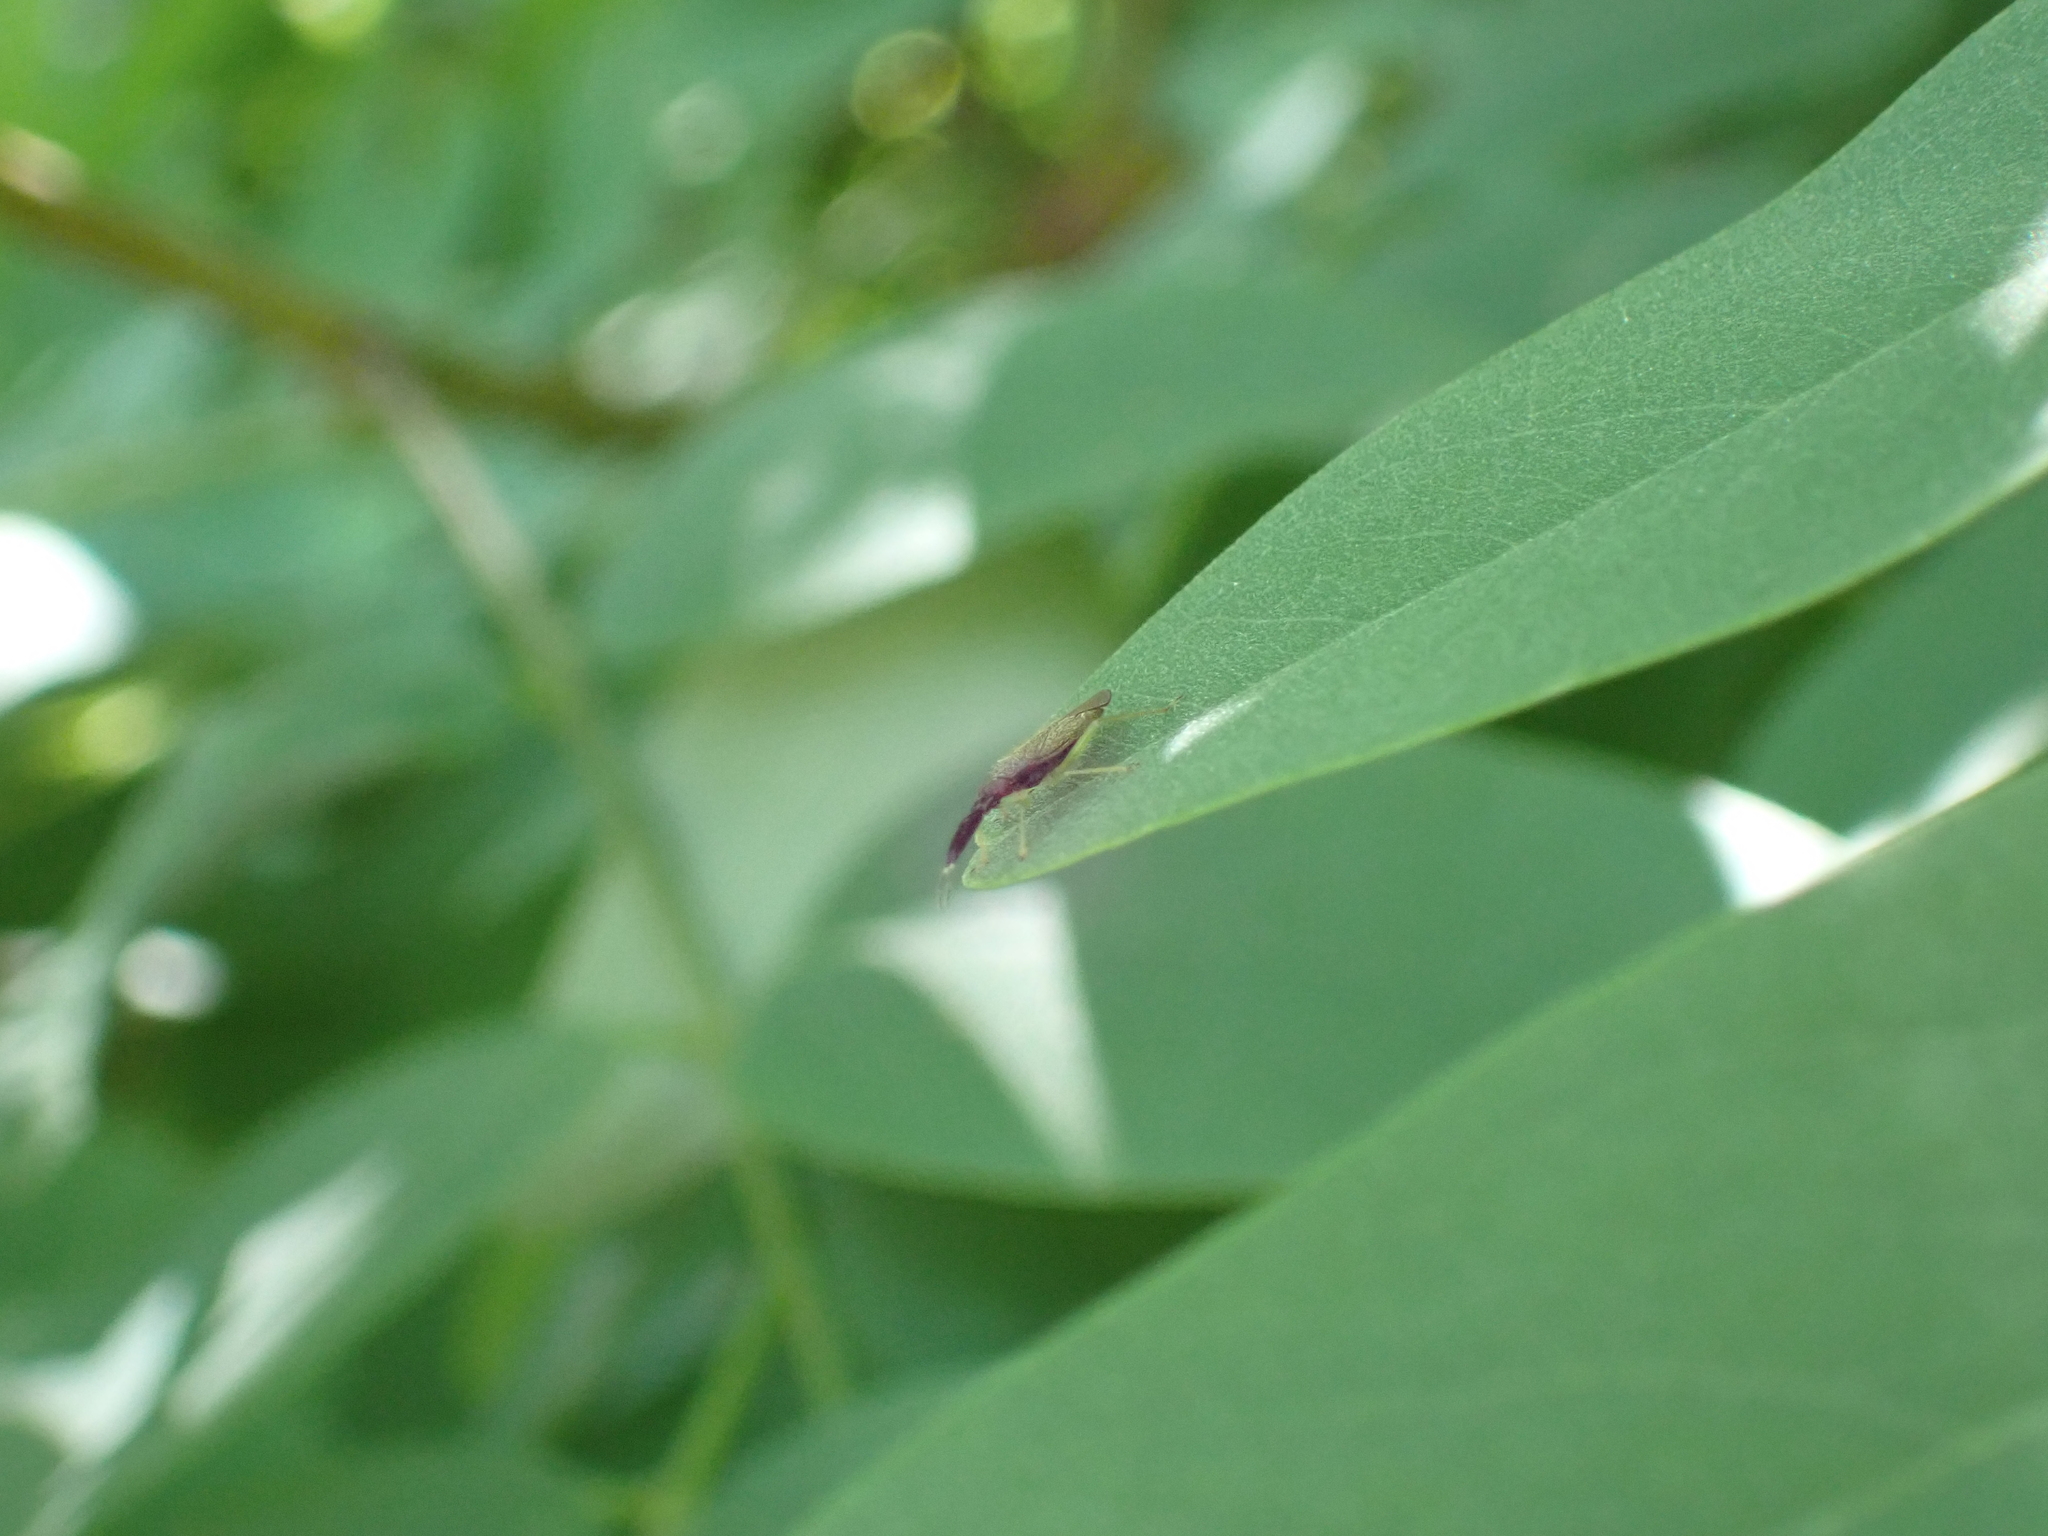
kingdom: Animalia
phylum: Arthropoda
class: Insecta
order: Hemiptera
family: Miridae
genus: Heterotoma
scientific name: Heterotoma planicornis
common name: Plant bug
